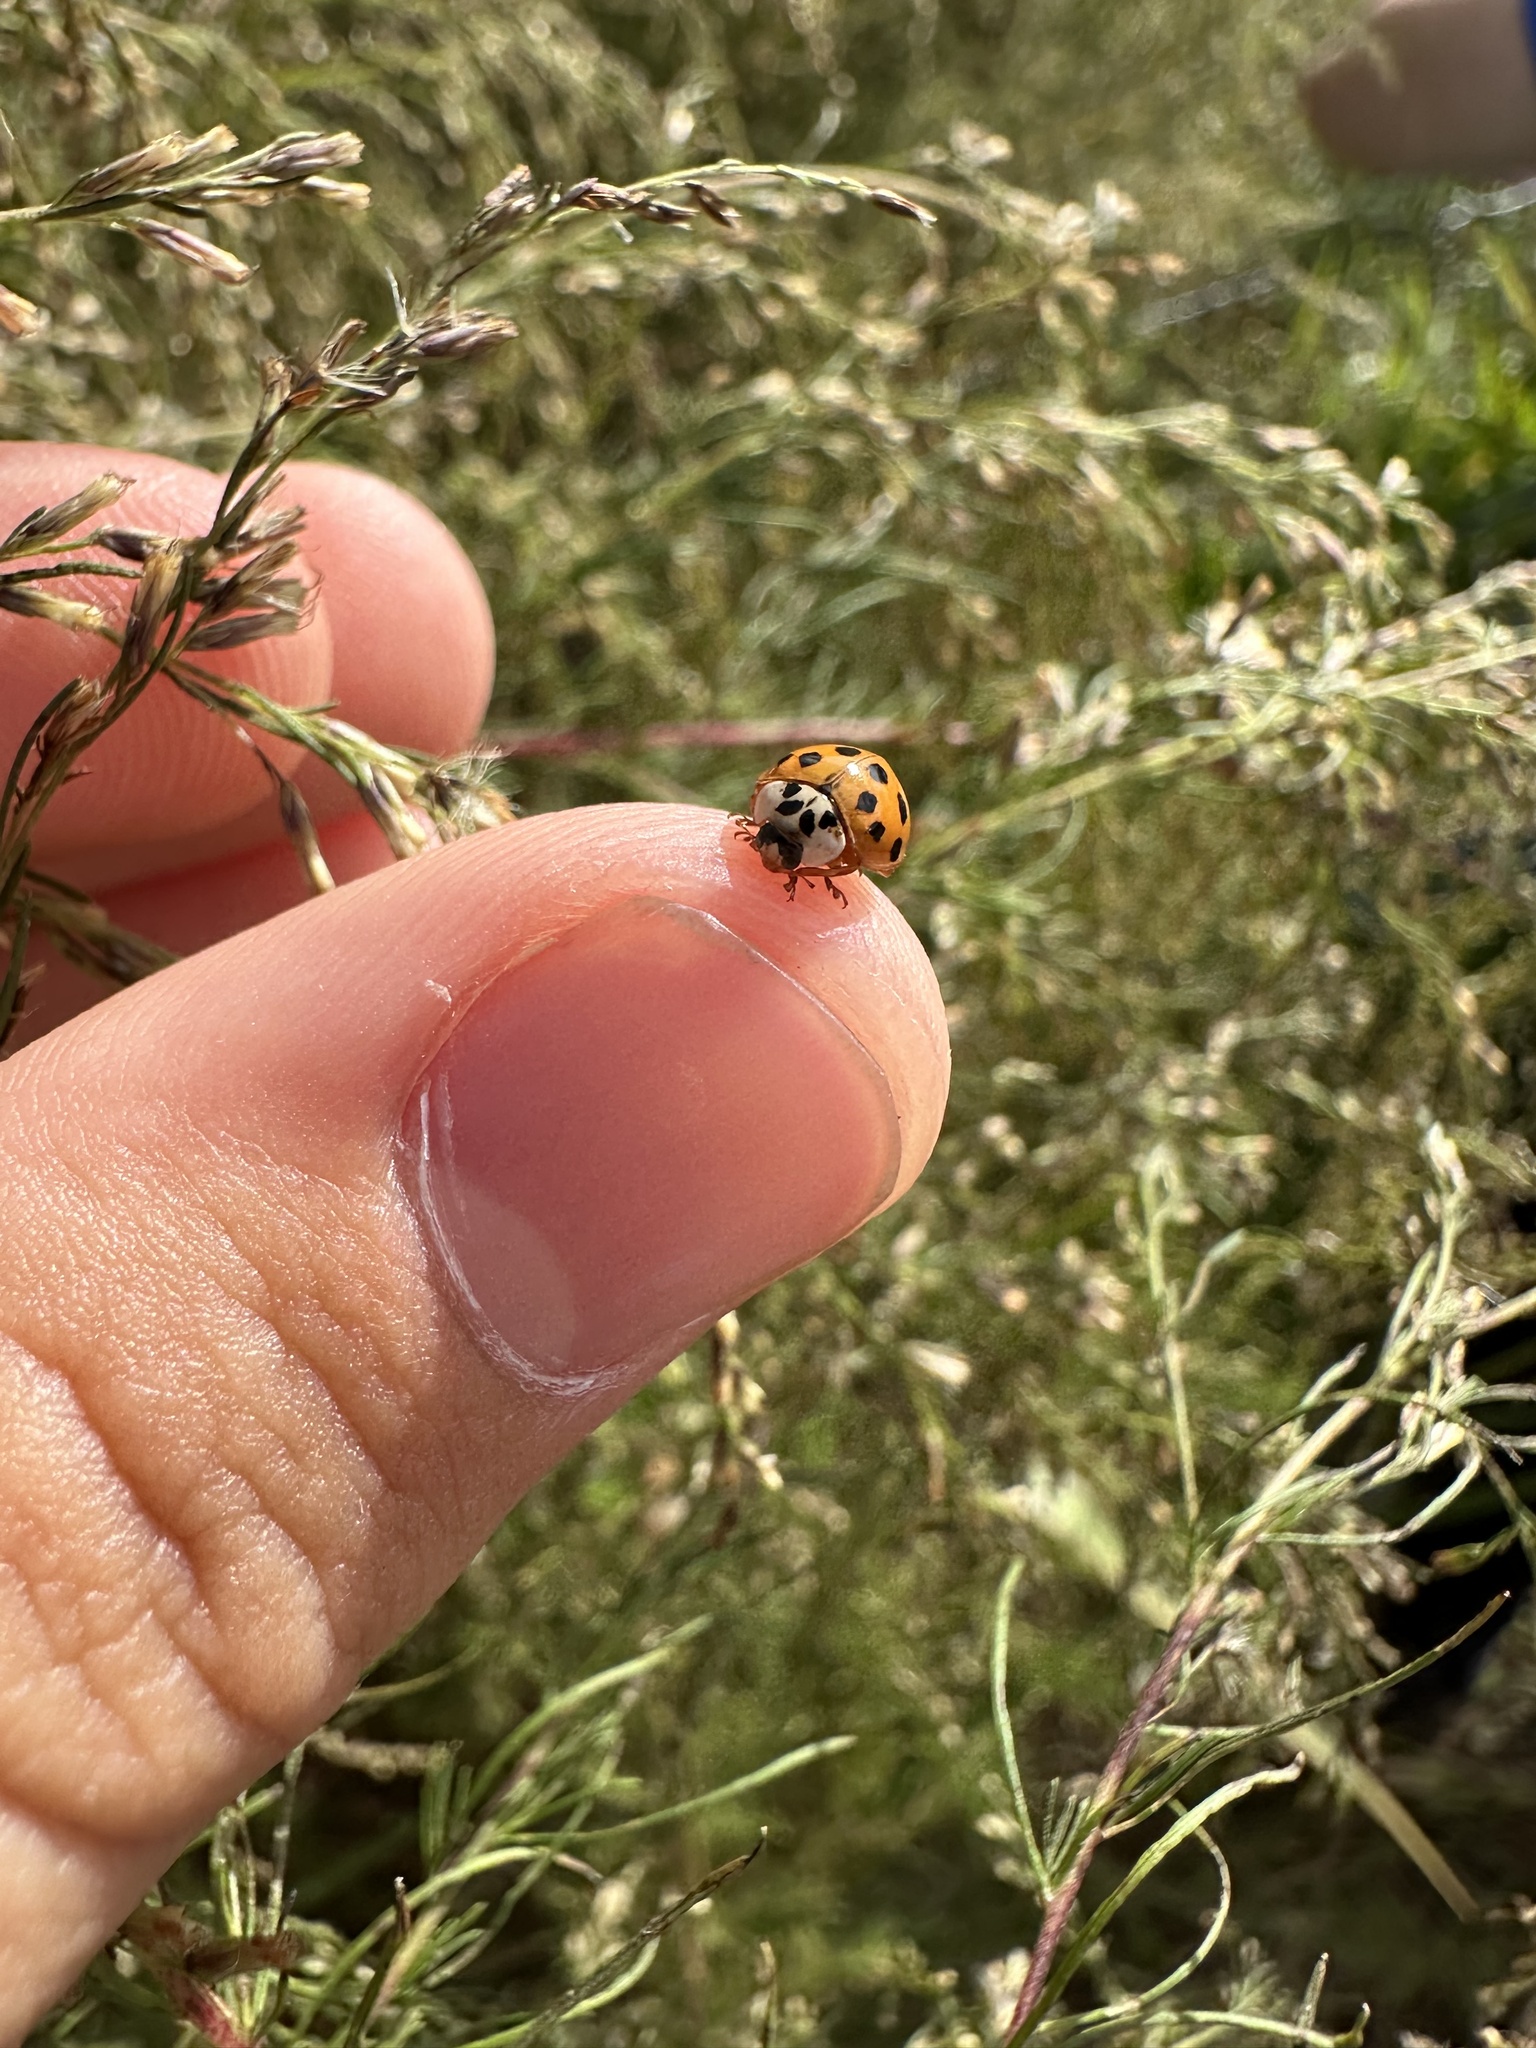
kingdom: Animalia
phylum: Arthropoda
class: Insecta
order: Coleoptera
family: Coccinellidae
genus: Harmonia
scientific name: Harmonia axyridis
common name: Harlequin ladybird
